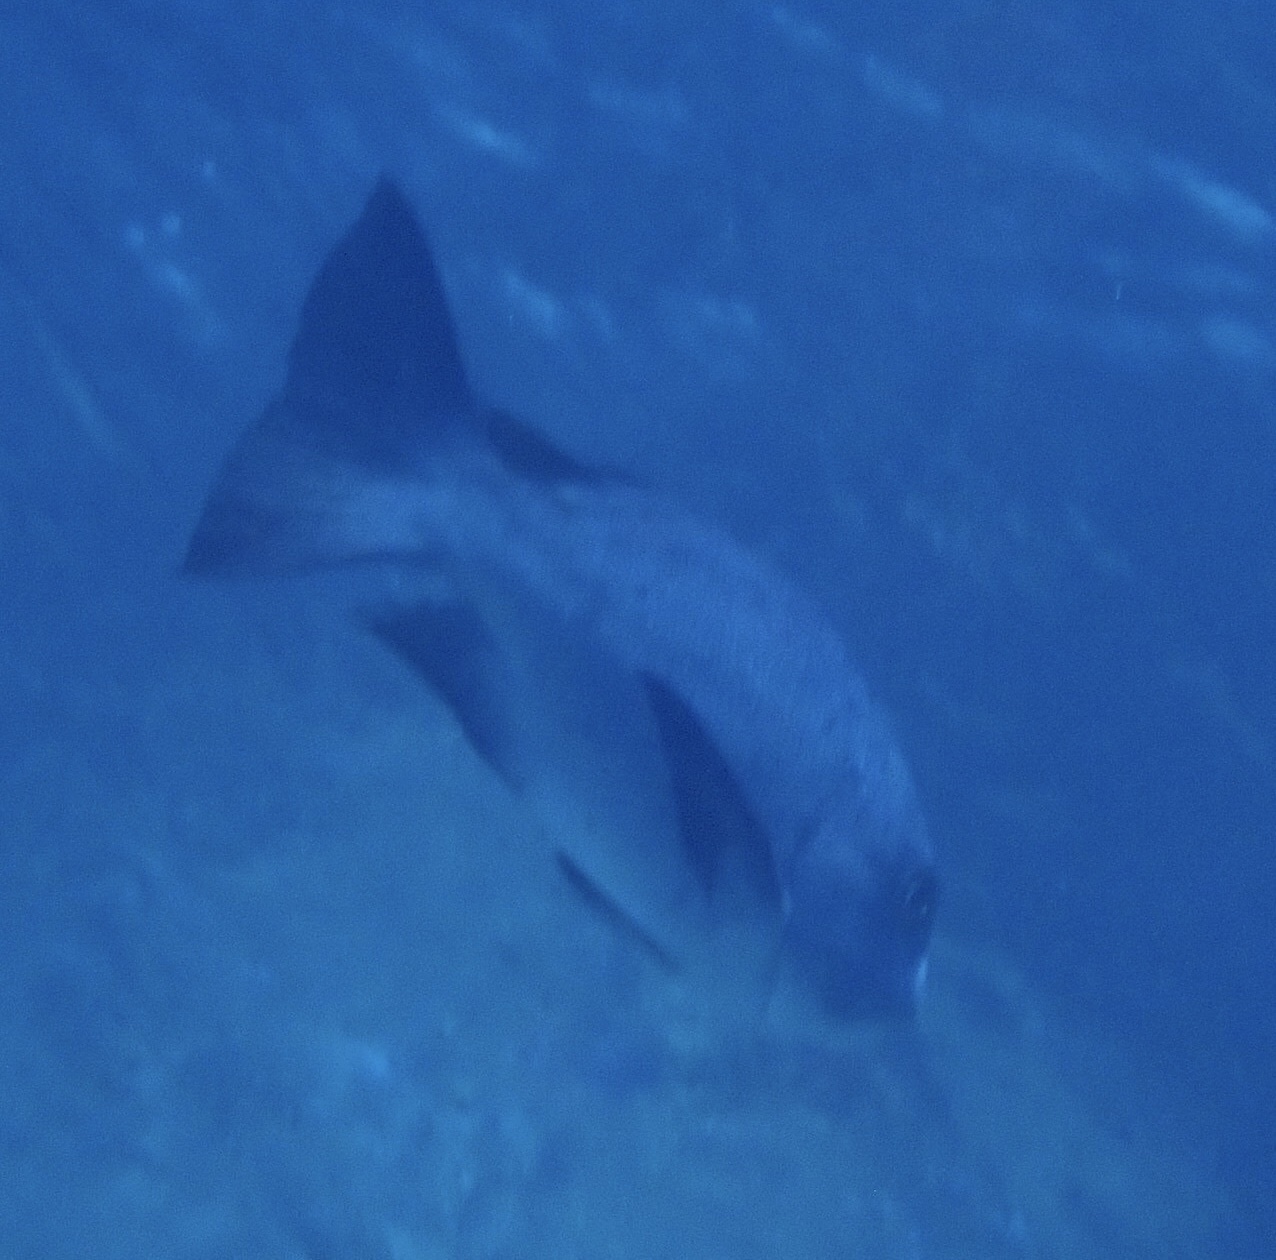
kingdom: Animalia
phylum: Chordata
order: Perciformes
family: Lutjanidae
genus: Macolor
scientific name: Macolor niger
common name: Black snapper
